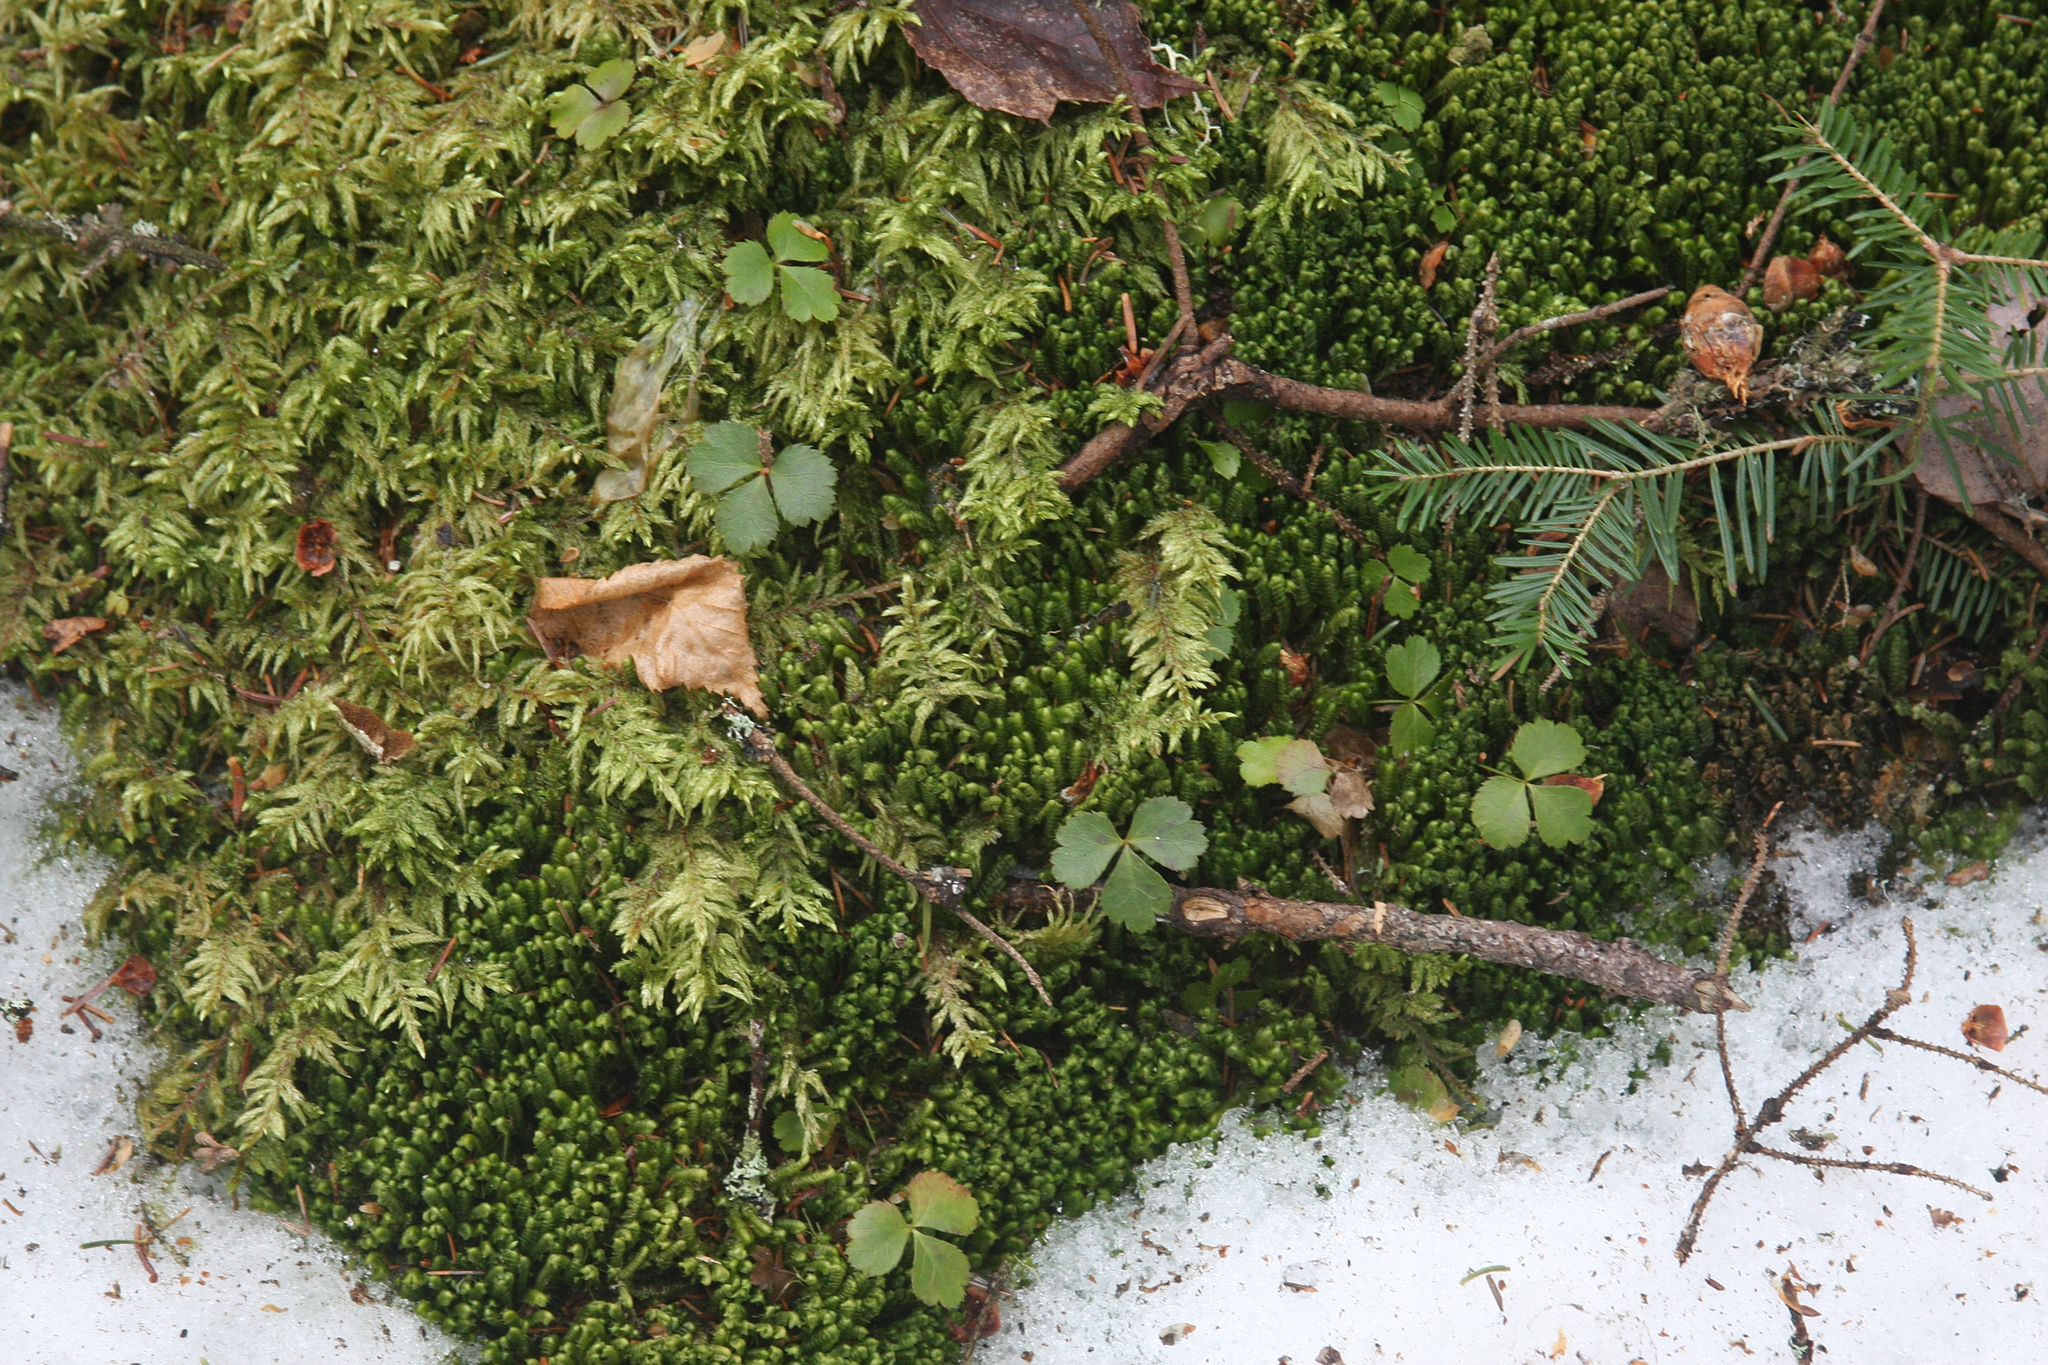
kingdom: Plantae
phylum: Tracheophyta
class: Magnoliopsida
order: Ranunculales
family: Ranunculaceae
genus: Coptis
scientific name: Coptis trifolia
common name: Canker-root
